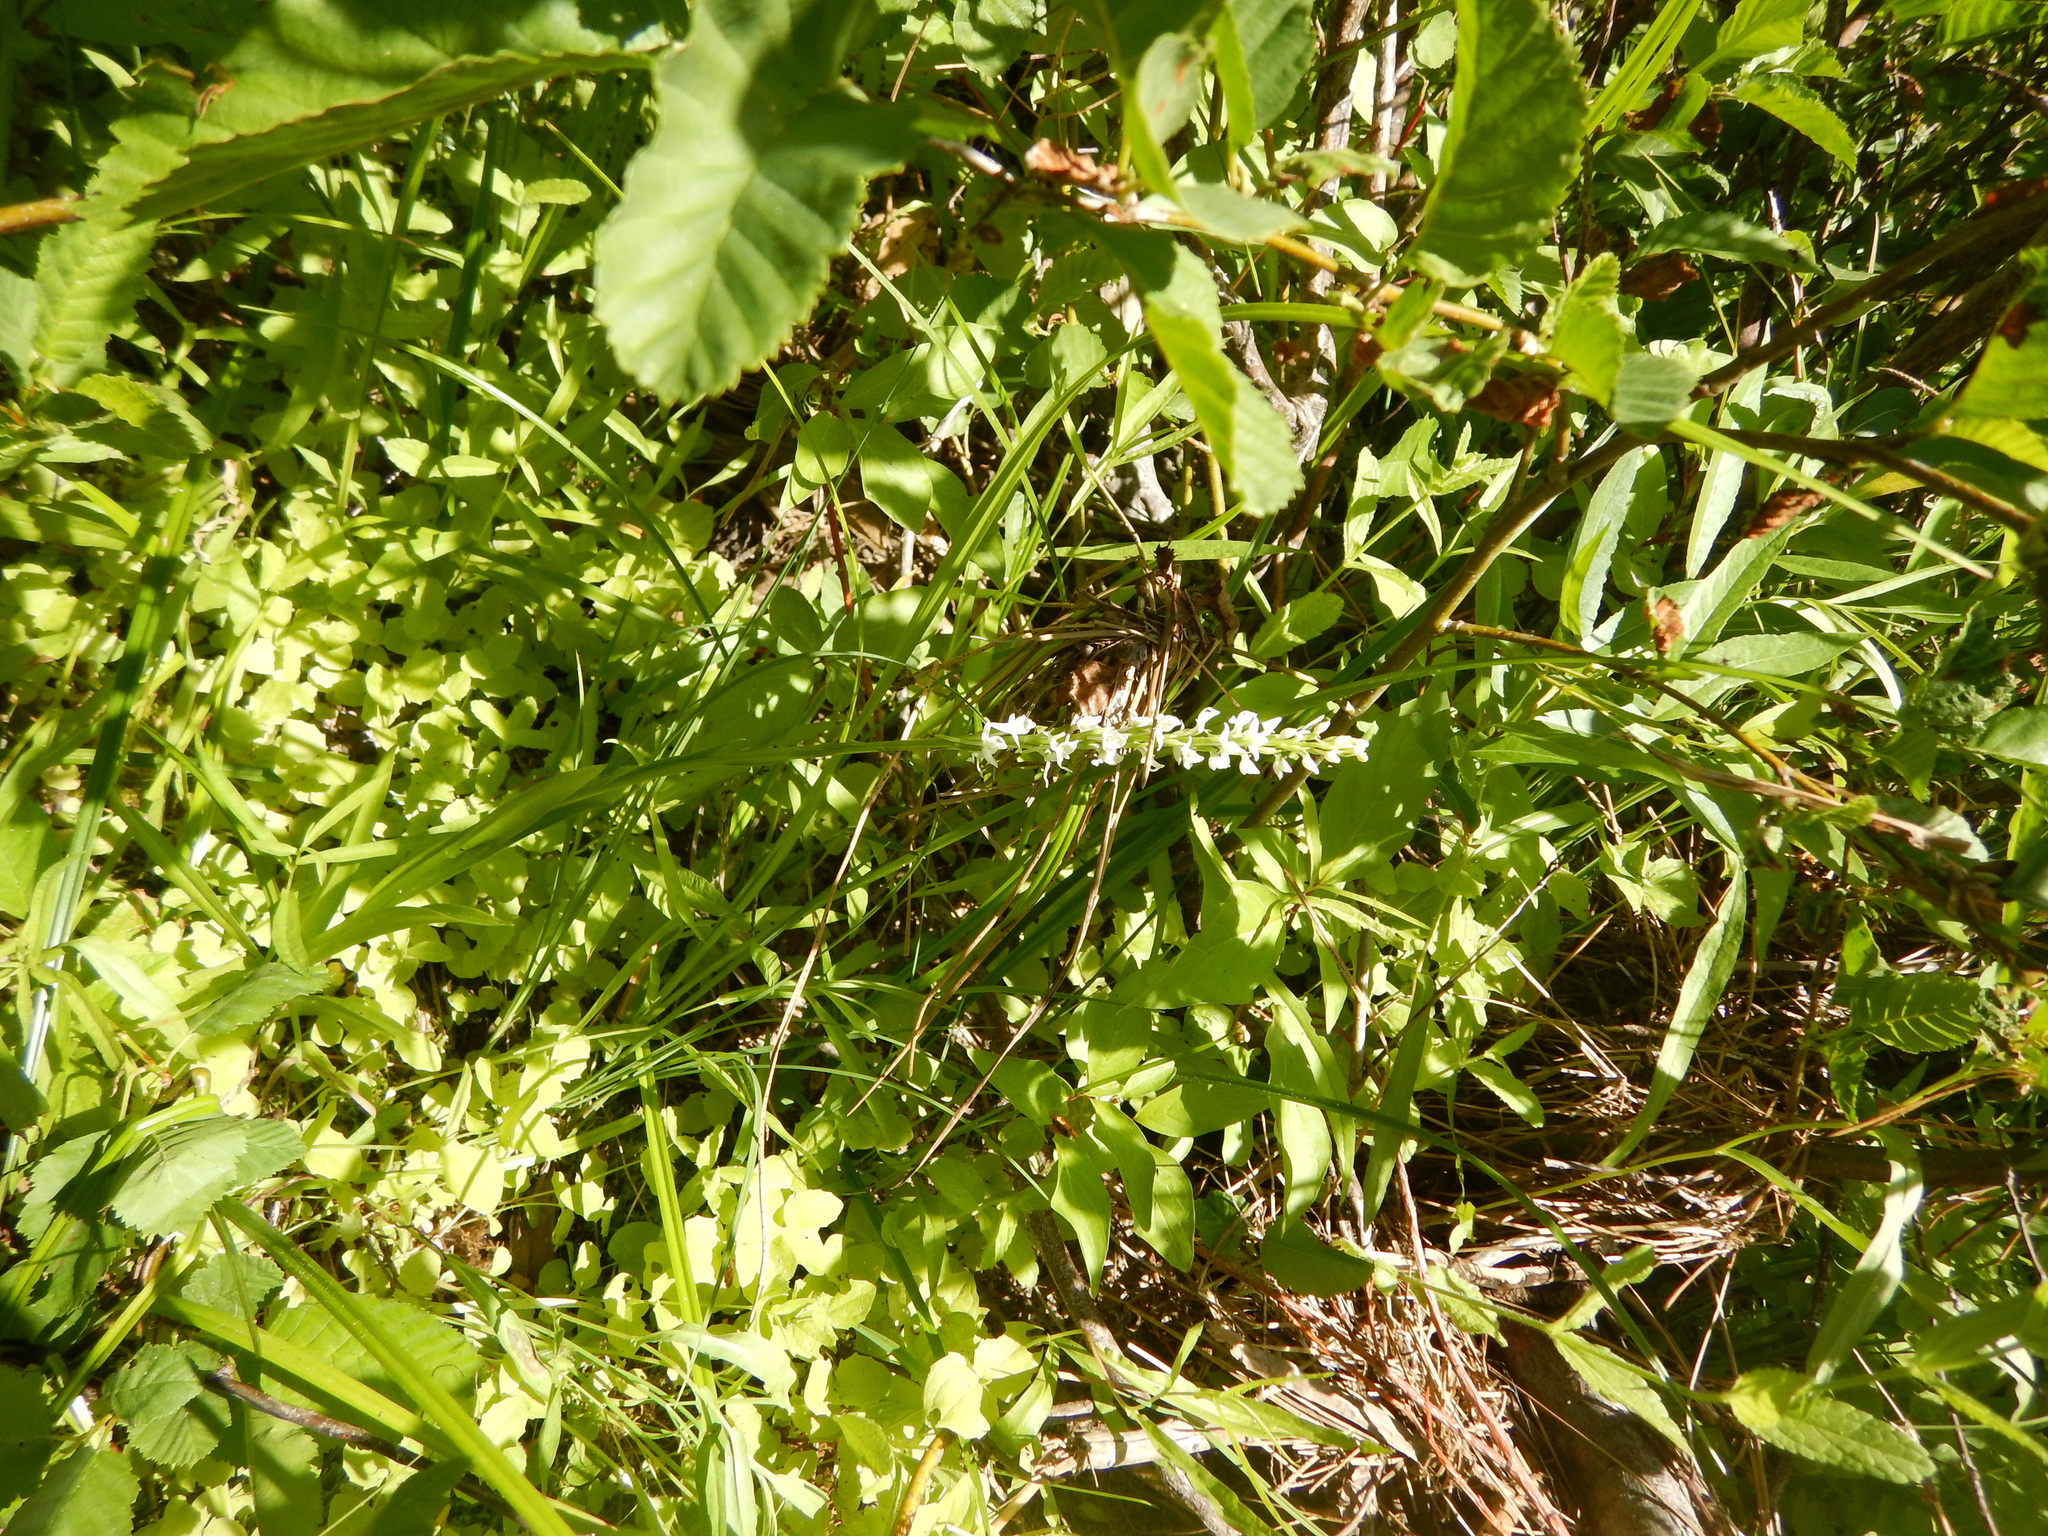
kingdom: Plantae
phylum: Tracheophyta
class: Liliopsida
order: Asparagales
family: Orchidaceae
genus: Platanthera
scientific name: Platanthera dilatata
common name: Bog candles
